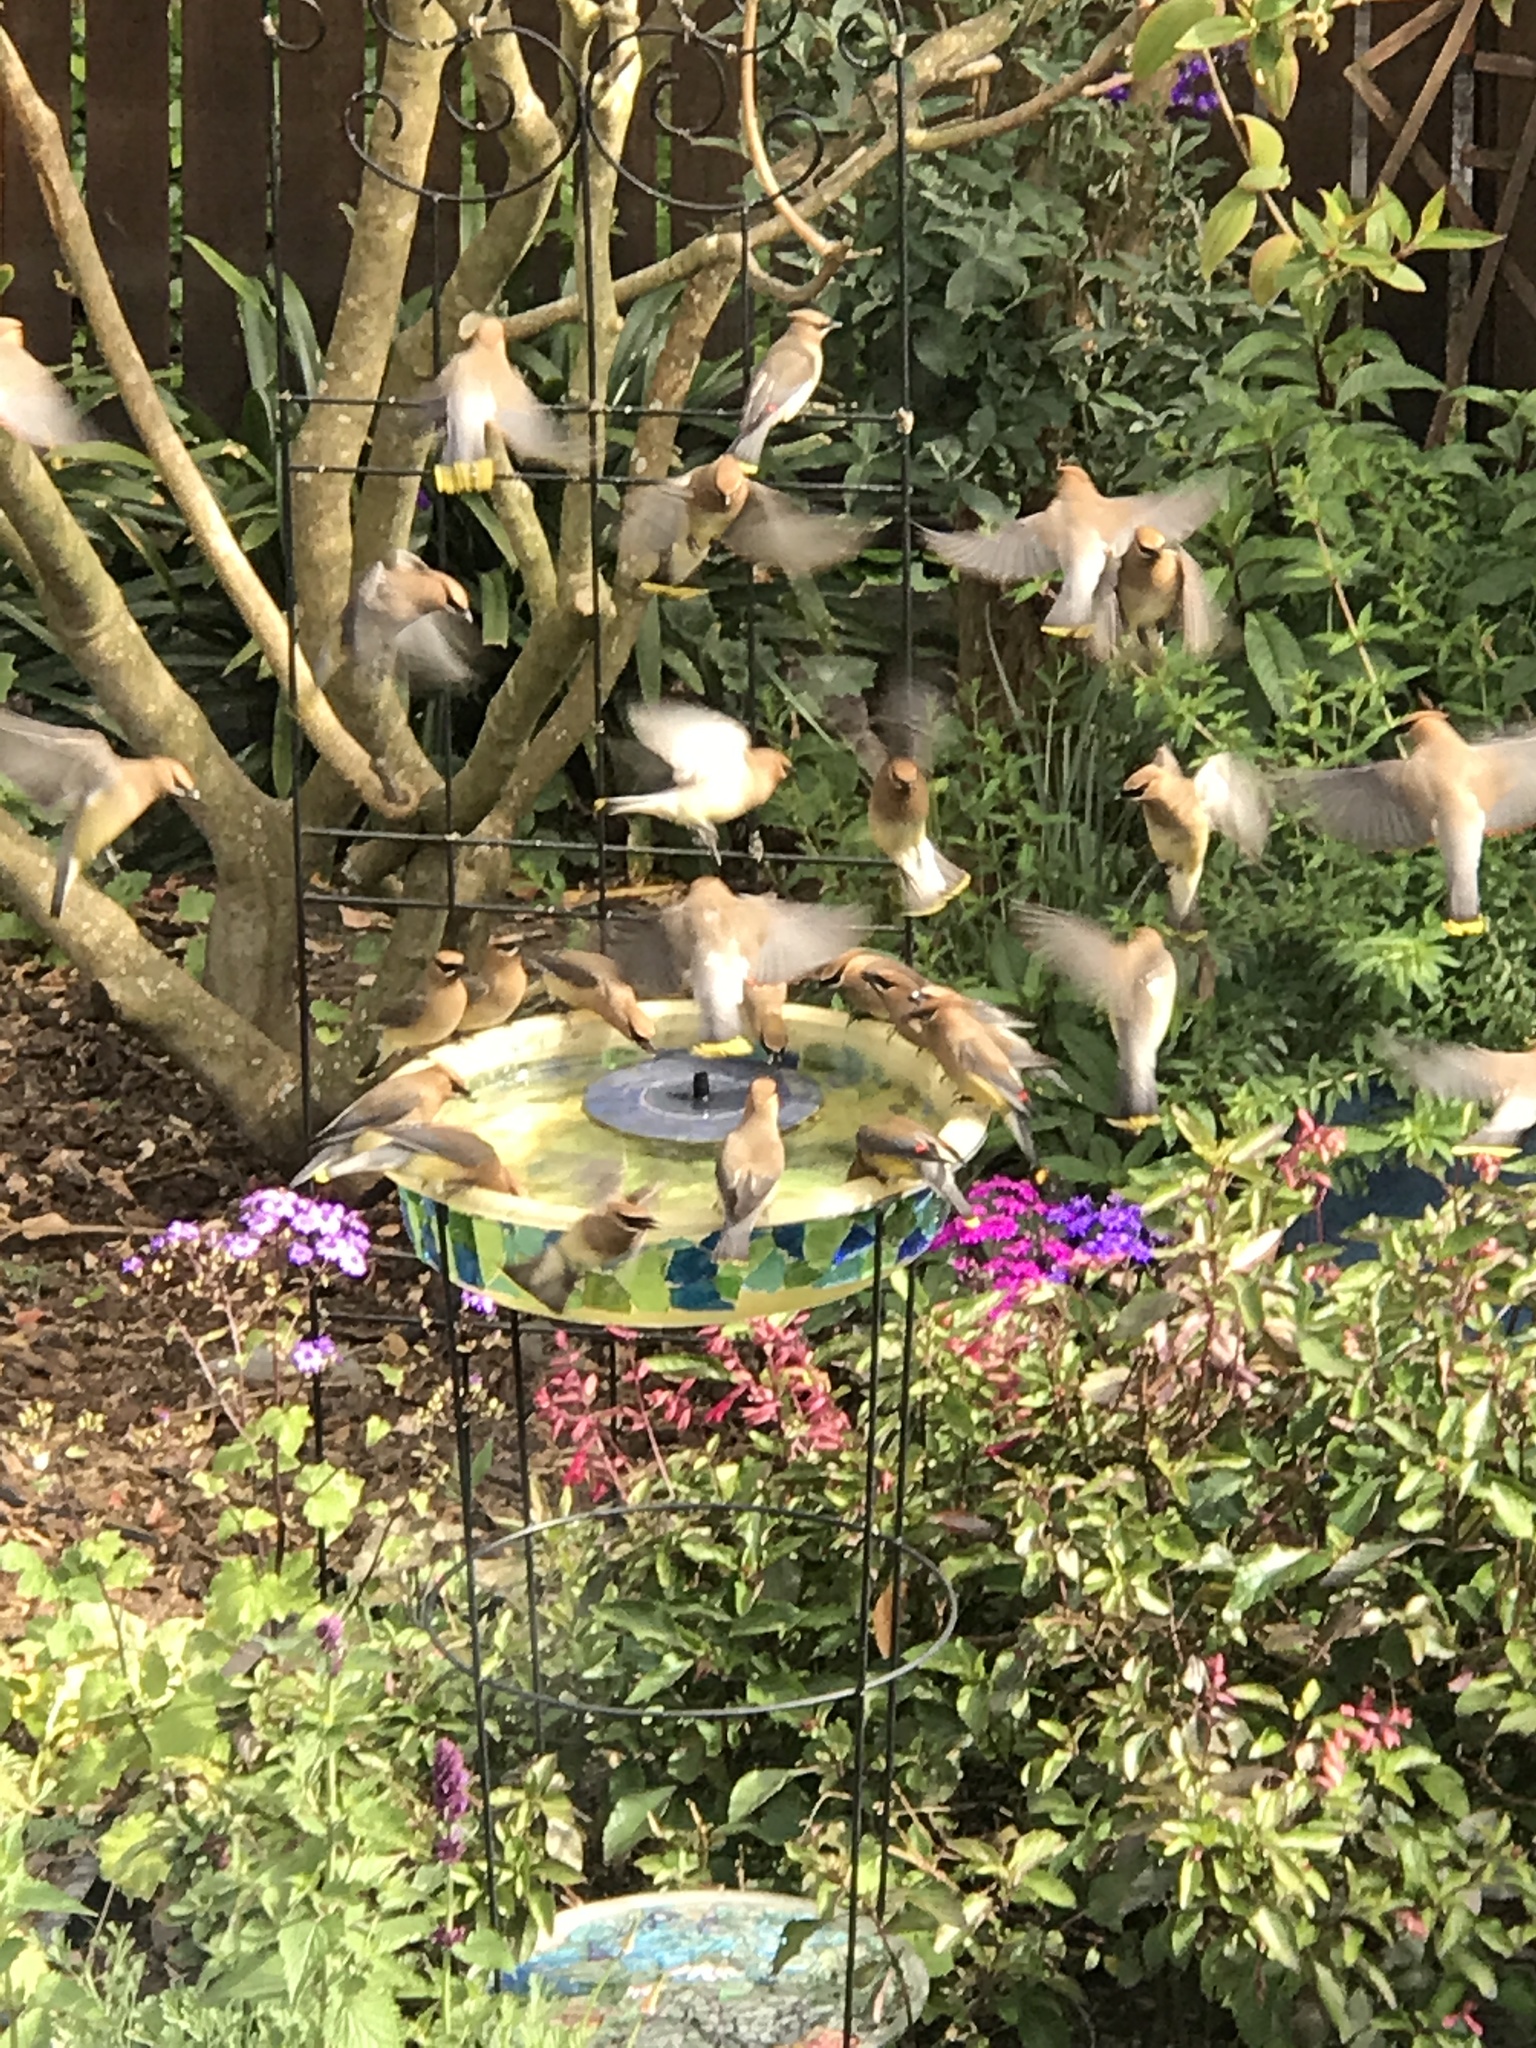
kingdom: Animalia
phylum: Chordata
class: Aves
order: Passeriformes
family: Bombycillidae
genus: Bombycilla
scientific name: Bombycilla cedrorum
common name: Cedar waxwing
